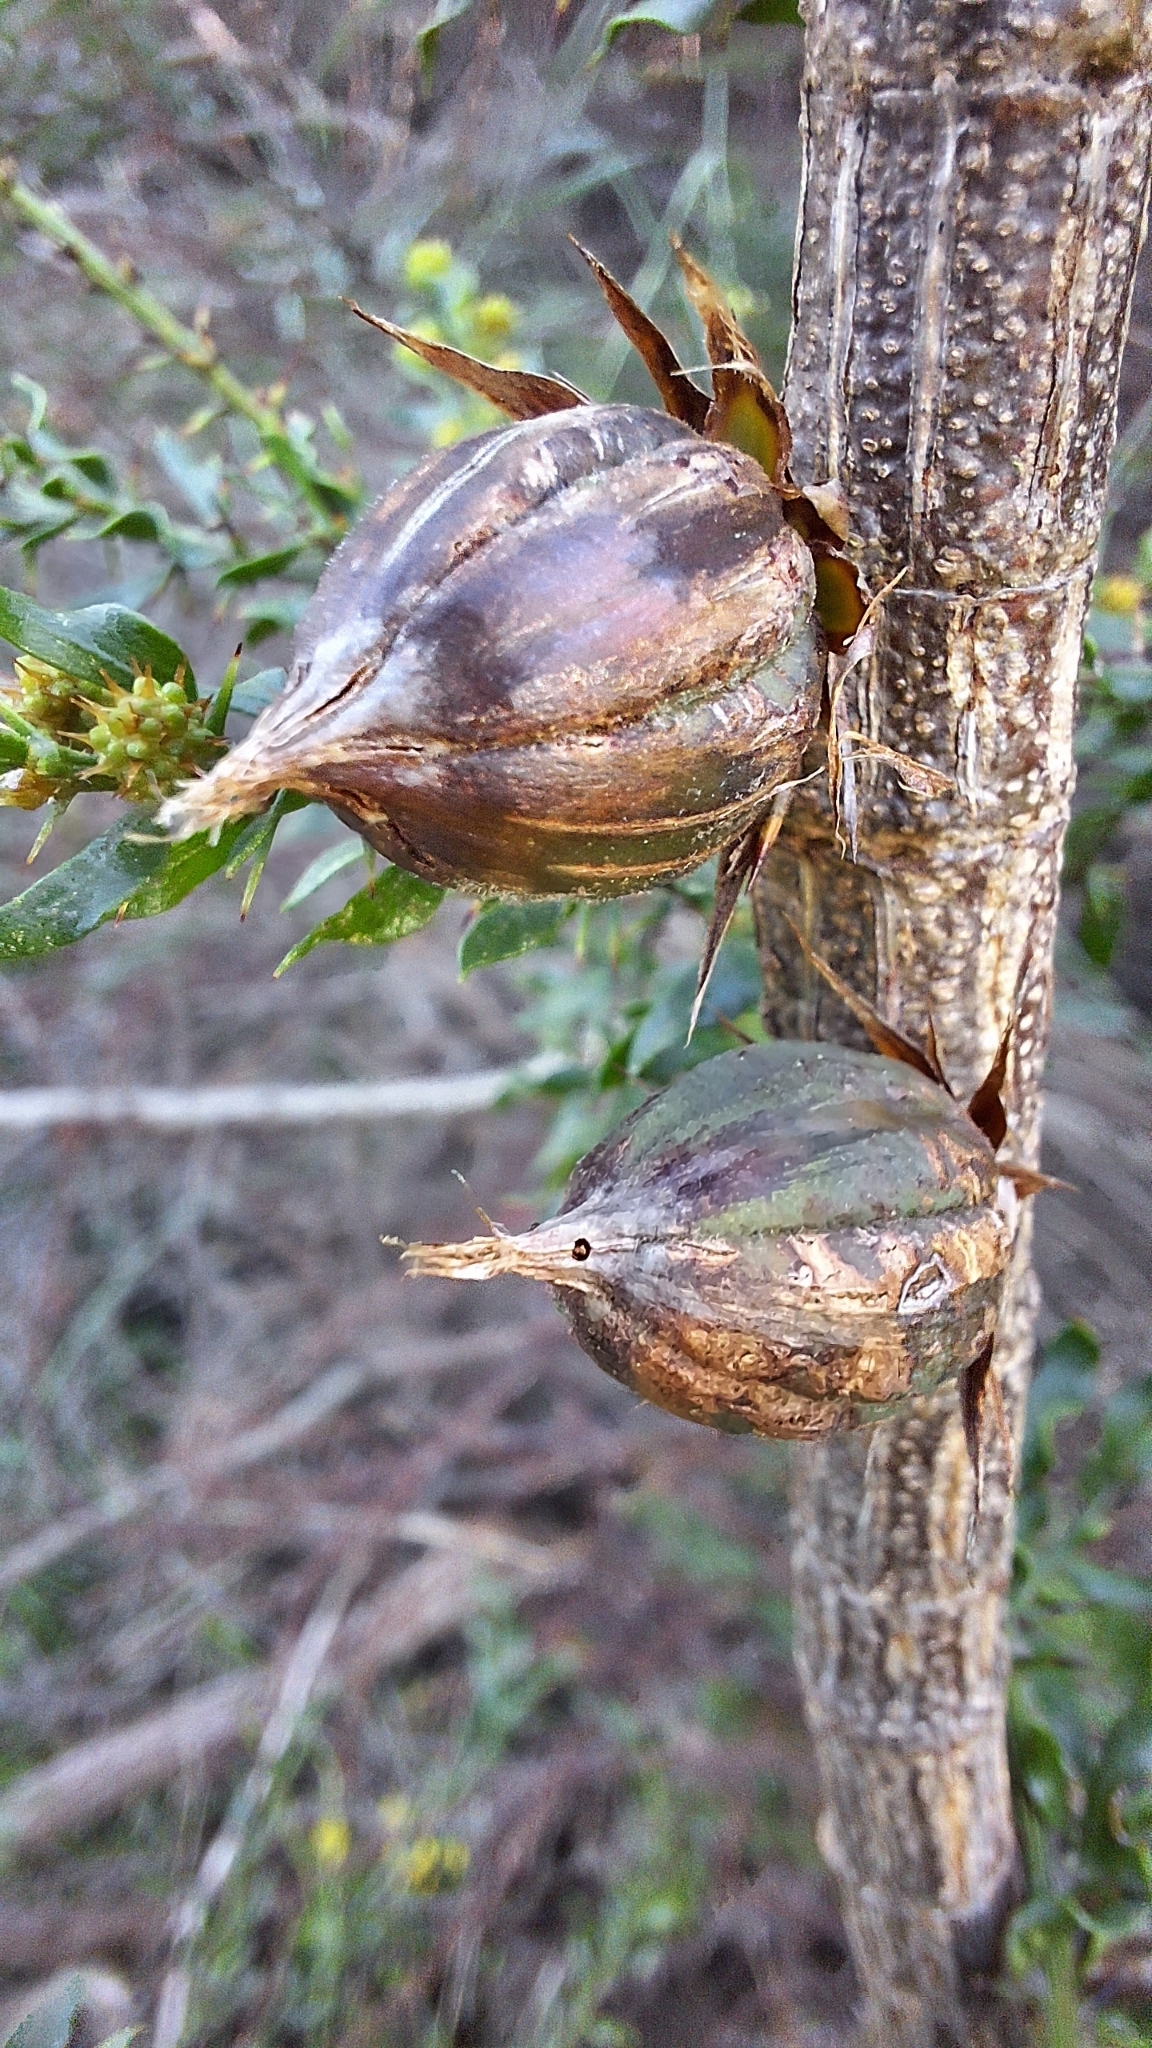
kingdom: Animalia
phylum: Arthropoda
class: Insecta
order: Hemiptera
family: Eriococcidae
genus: Cylindrococcus
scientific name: Cylindrococcus casuarinae
